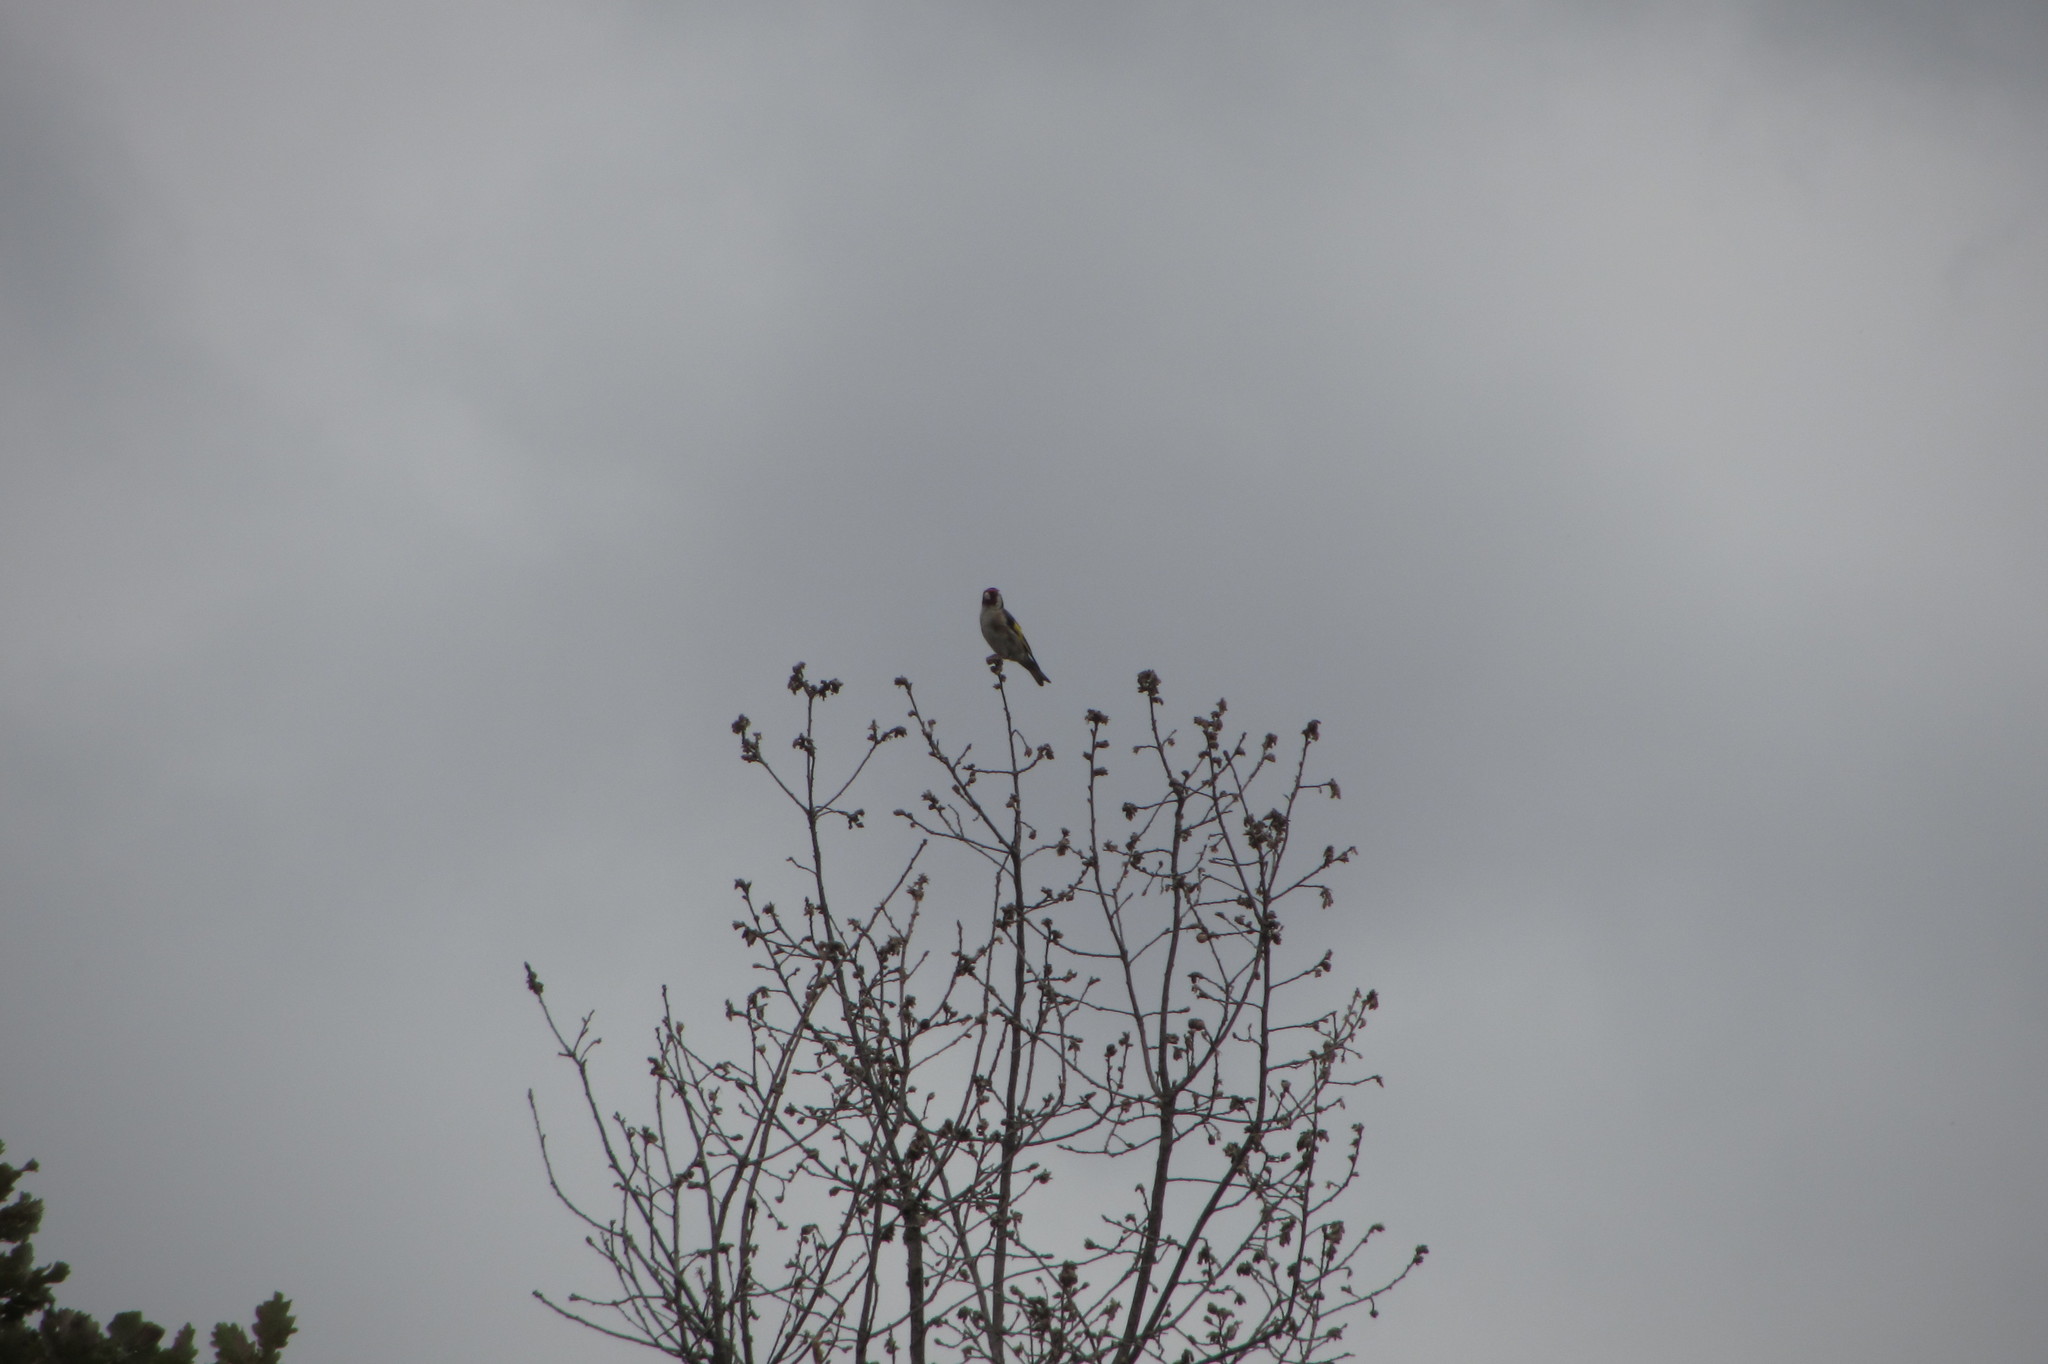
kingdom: Animalia
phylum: Chordata
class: Aves
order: Passeriformes
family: Fringillidae
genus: Carduelis
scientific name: Carduelis carduelis
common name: European goldfinch
